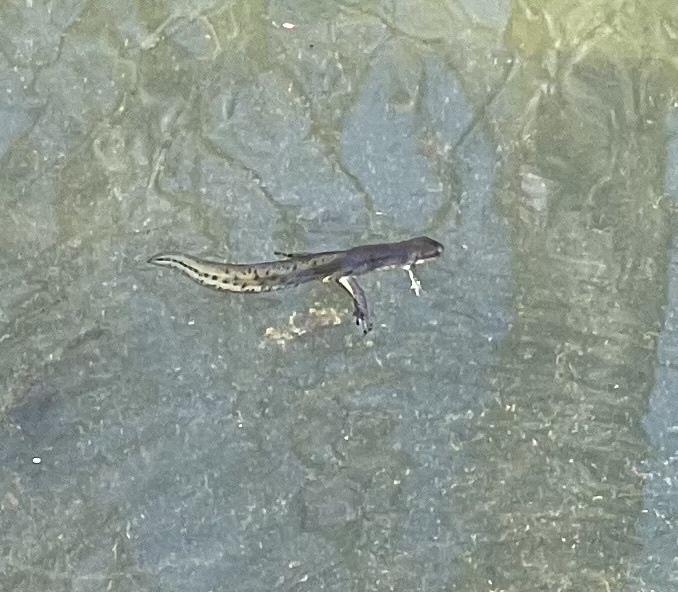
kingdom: Animalia
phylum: Chordata
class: Amphibia
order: Caudata
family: Salamandridae
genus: Notophthalmus
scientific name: Notophthalmus viridescens
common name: Eastern newt
